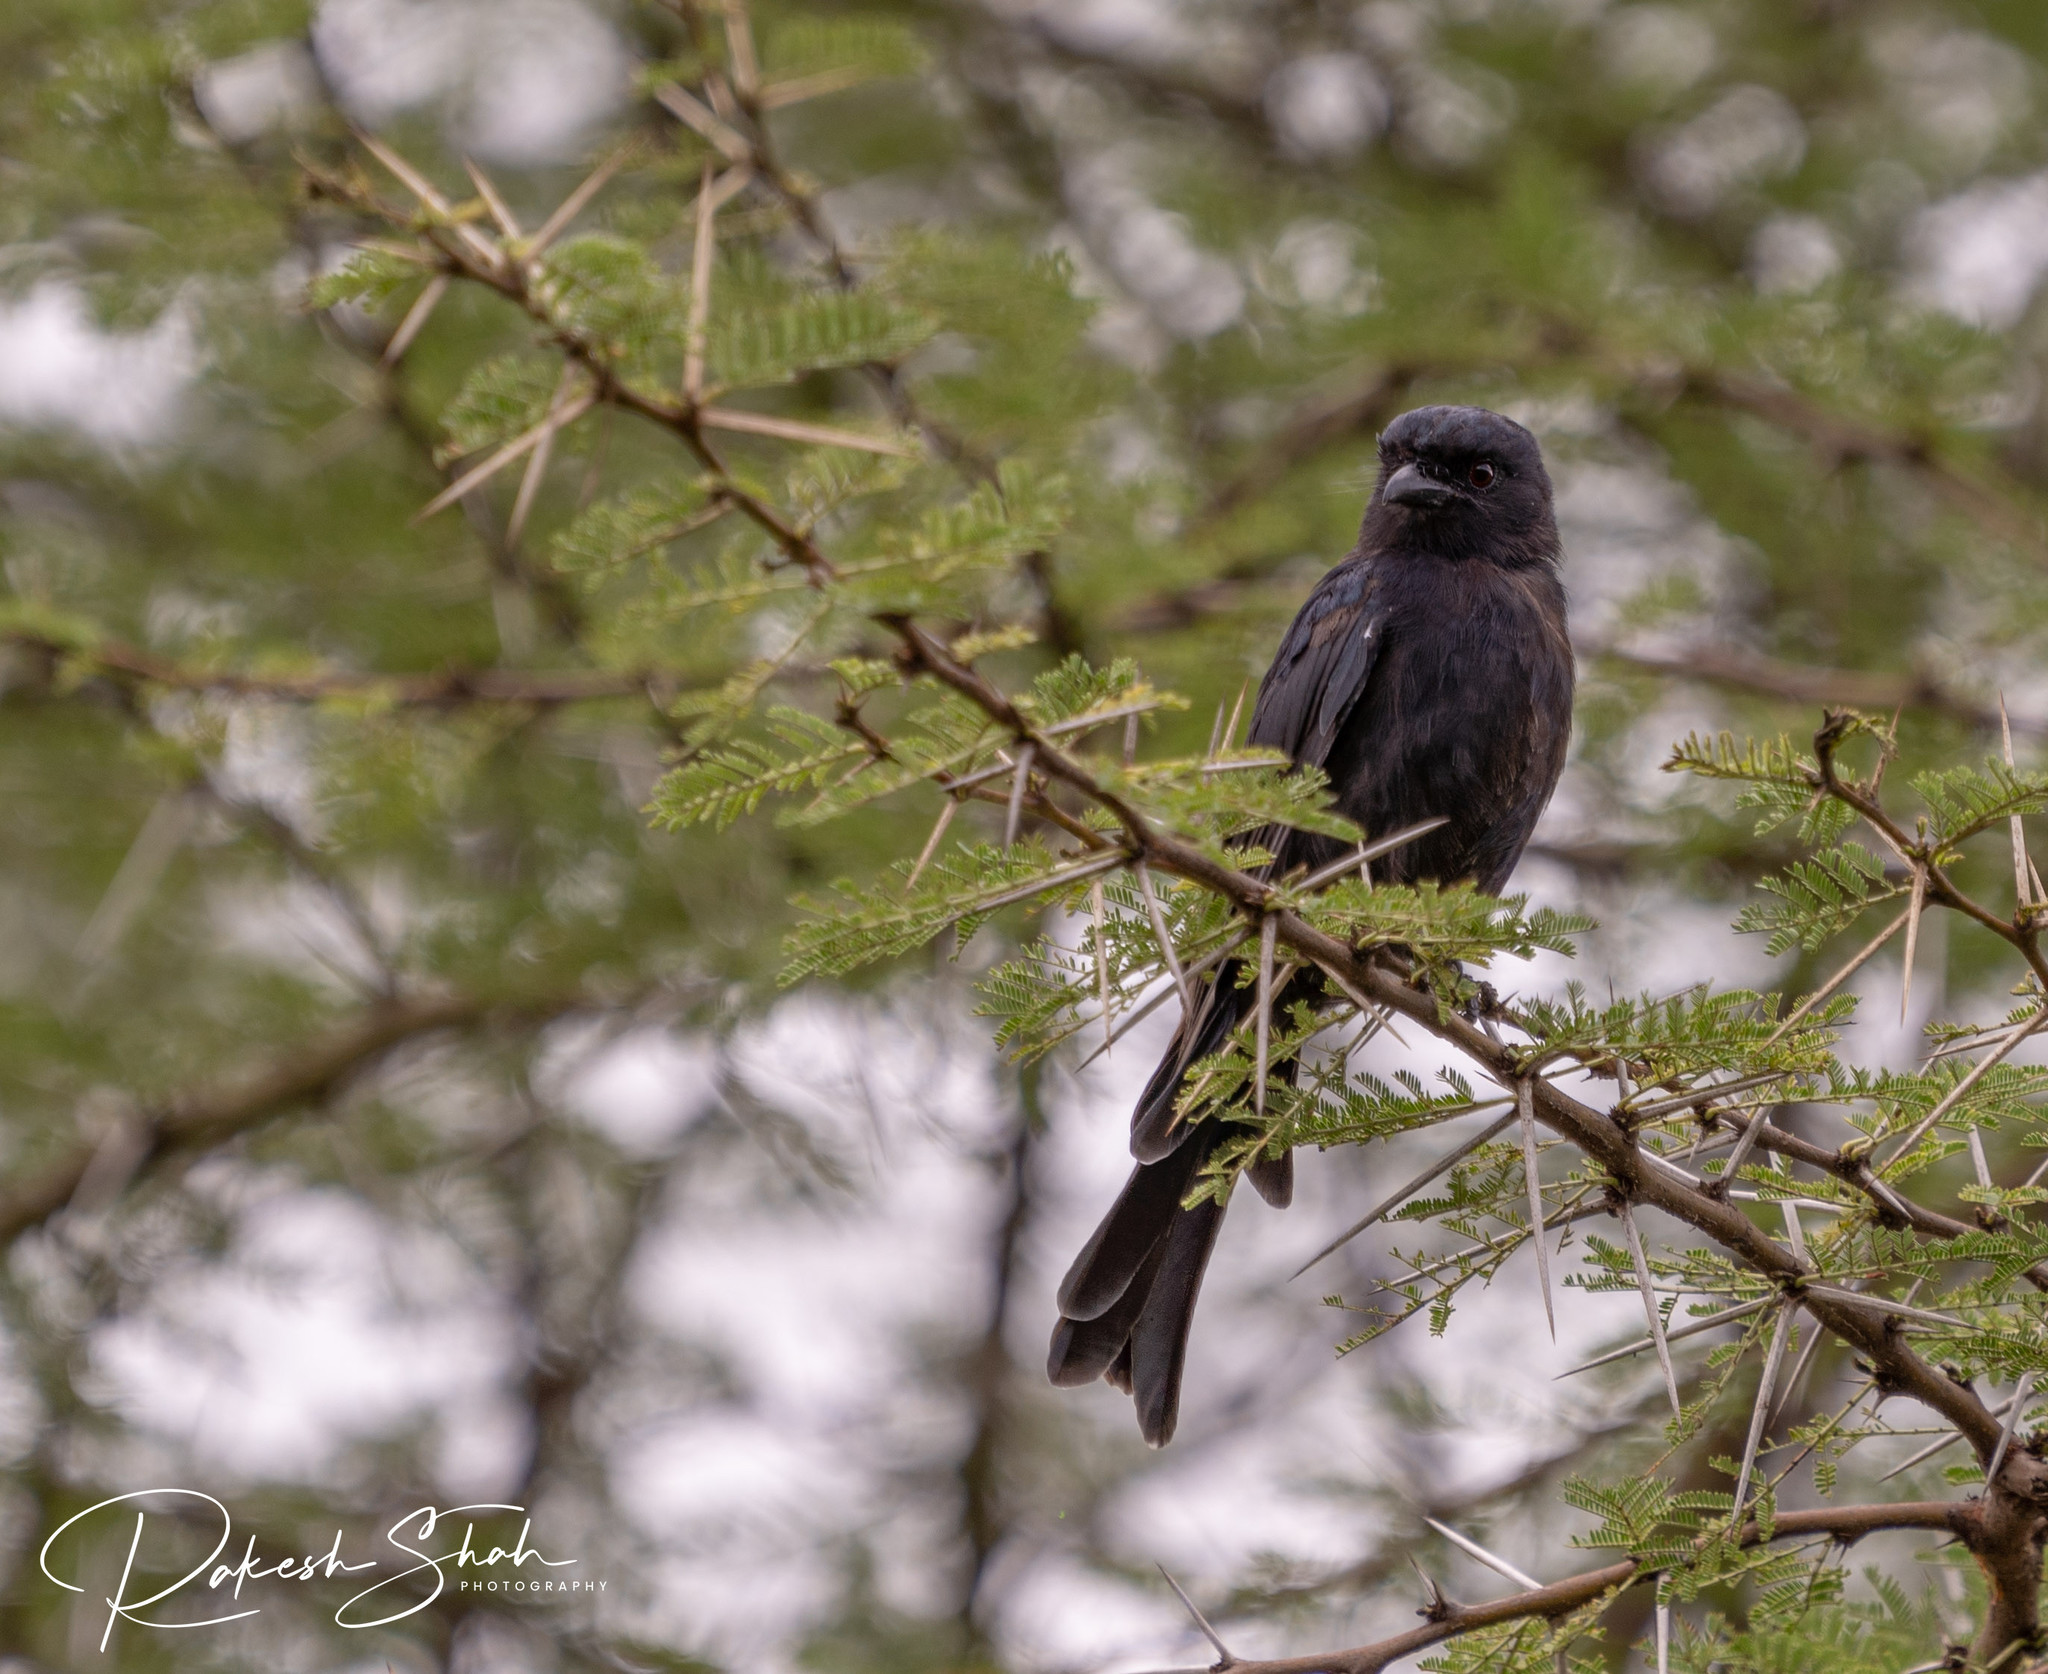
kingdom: Animalia
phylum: Chordata
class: Aves
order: Passeriformes
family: Dicruridae
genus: Dicrurus
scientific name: Dicrurus adsimilis
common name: Fork-tailed drongo
